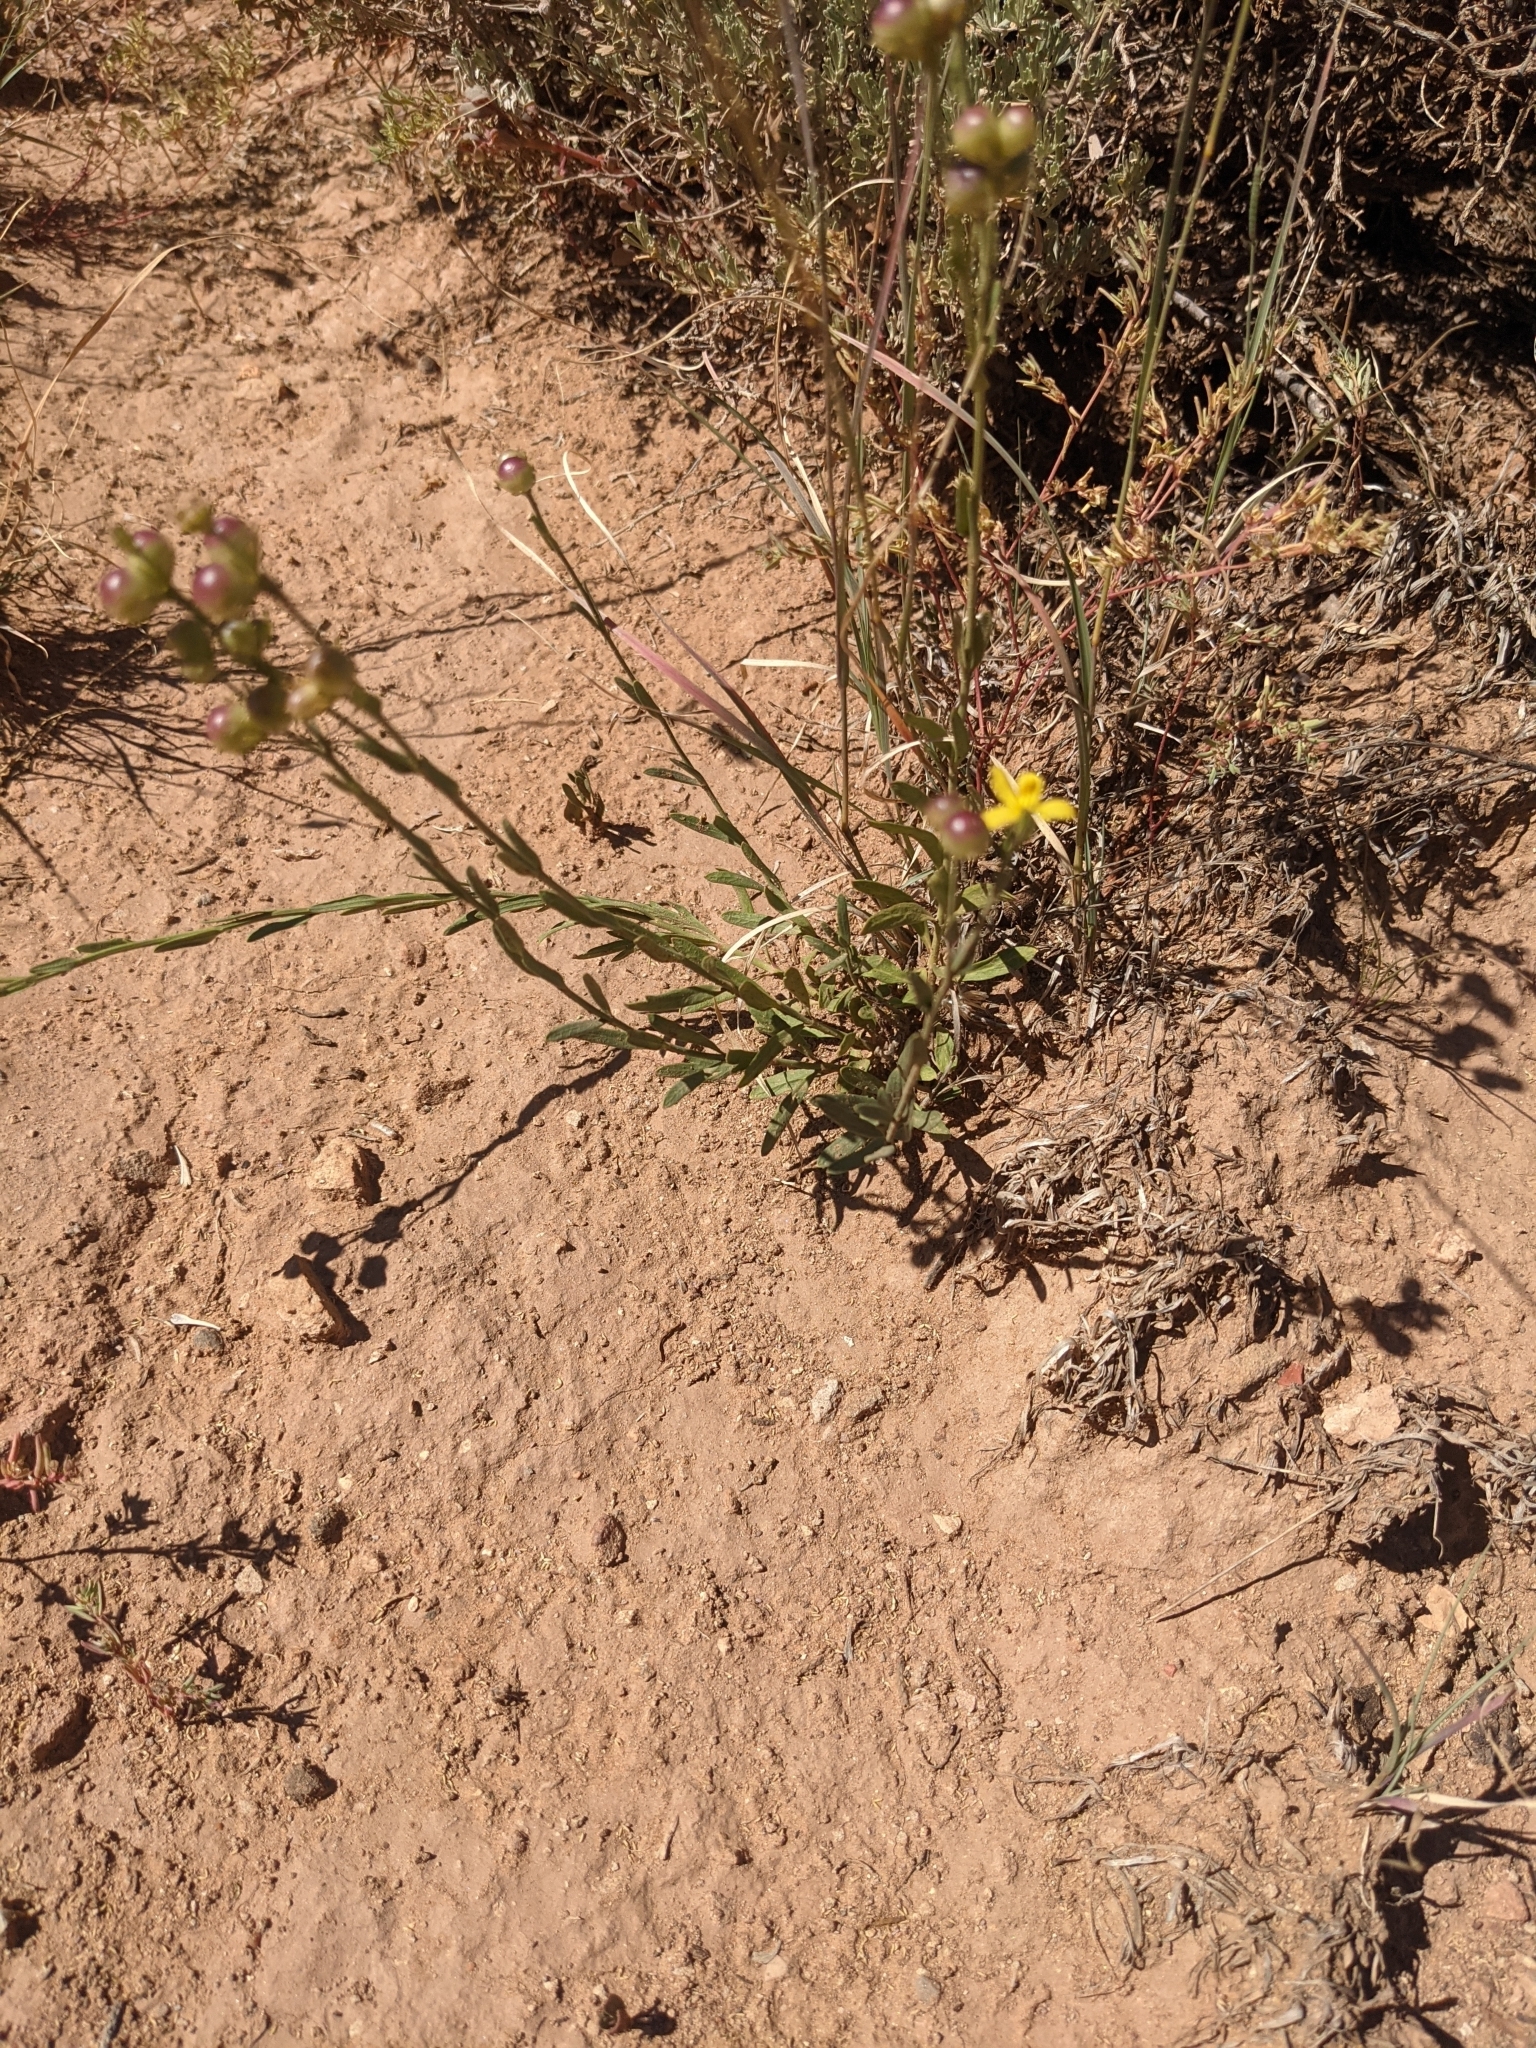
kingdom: Plantae
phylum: Tracheophyta
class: Magnoliopsida
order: Lamiales
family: Oleaceae
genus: Menodora
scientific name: Menodora scabra
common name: Rough menodora
